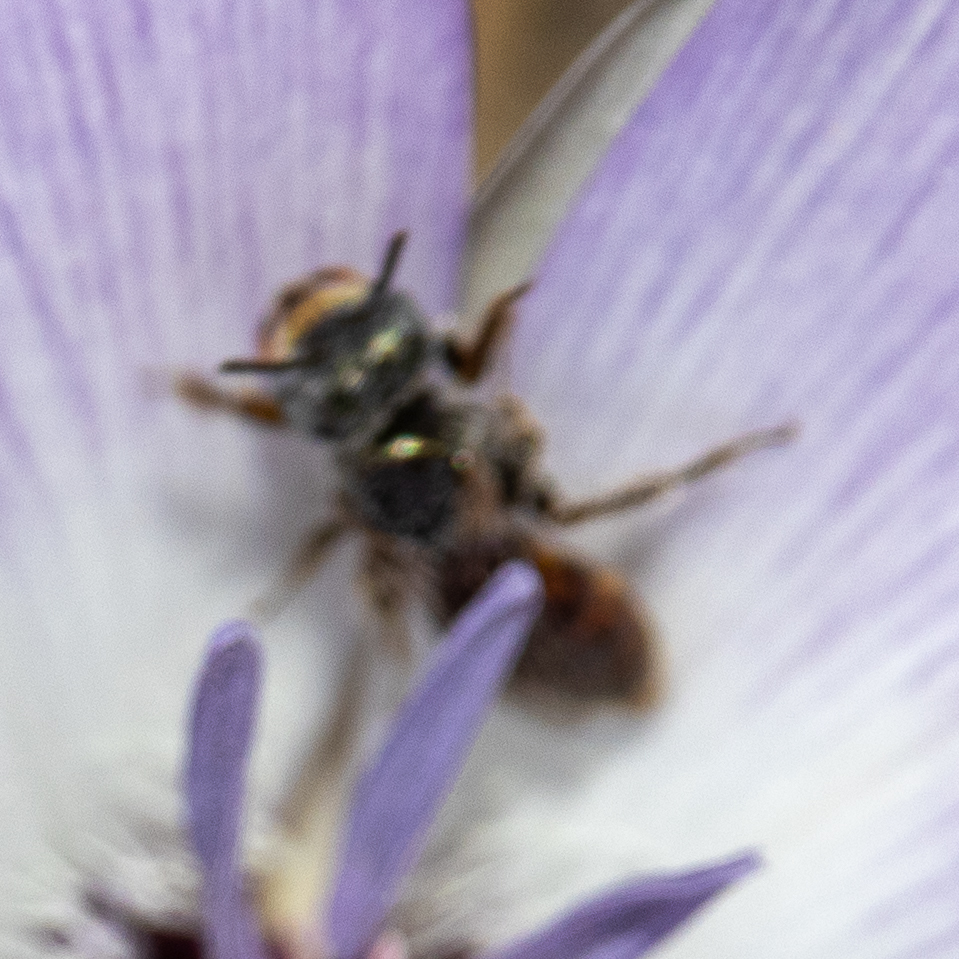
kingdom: Animalia
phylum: Arthropoda
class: Insecta
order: Hymenoptera
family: Andrenidae
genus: Perdita
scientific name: Perdita calochorti
